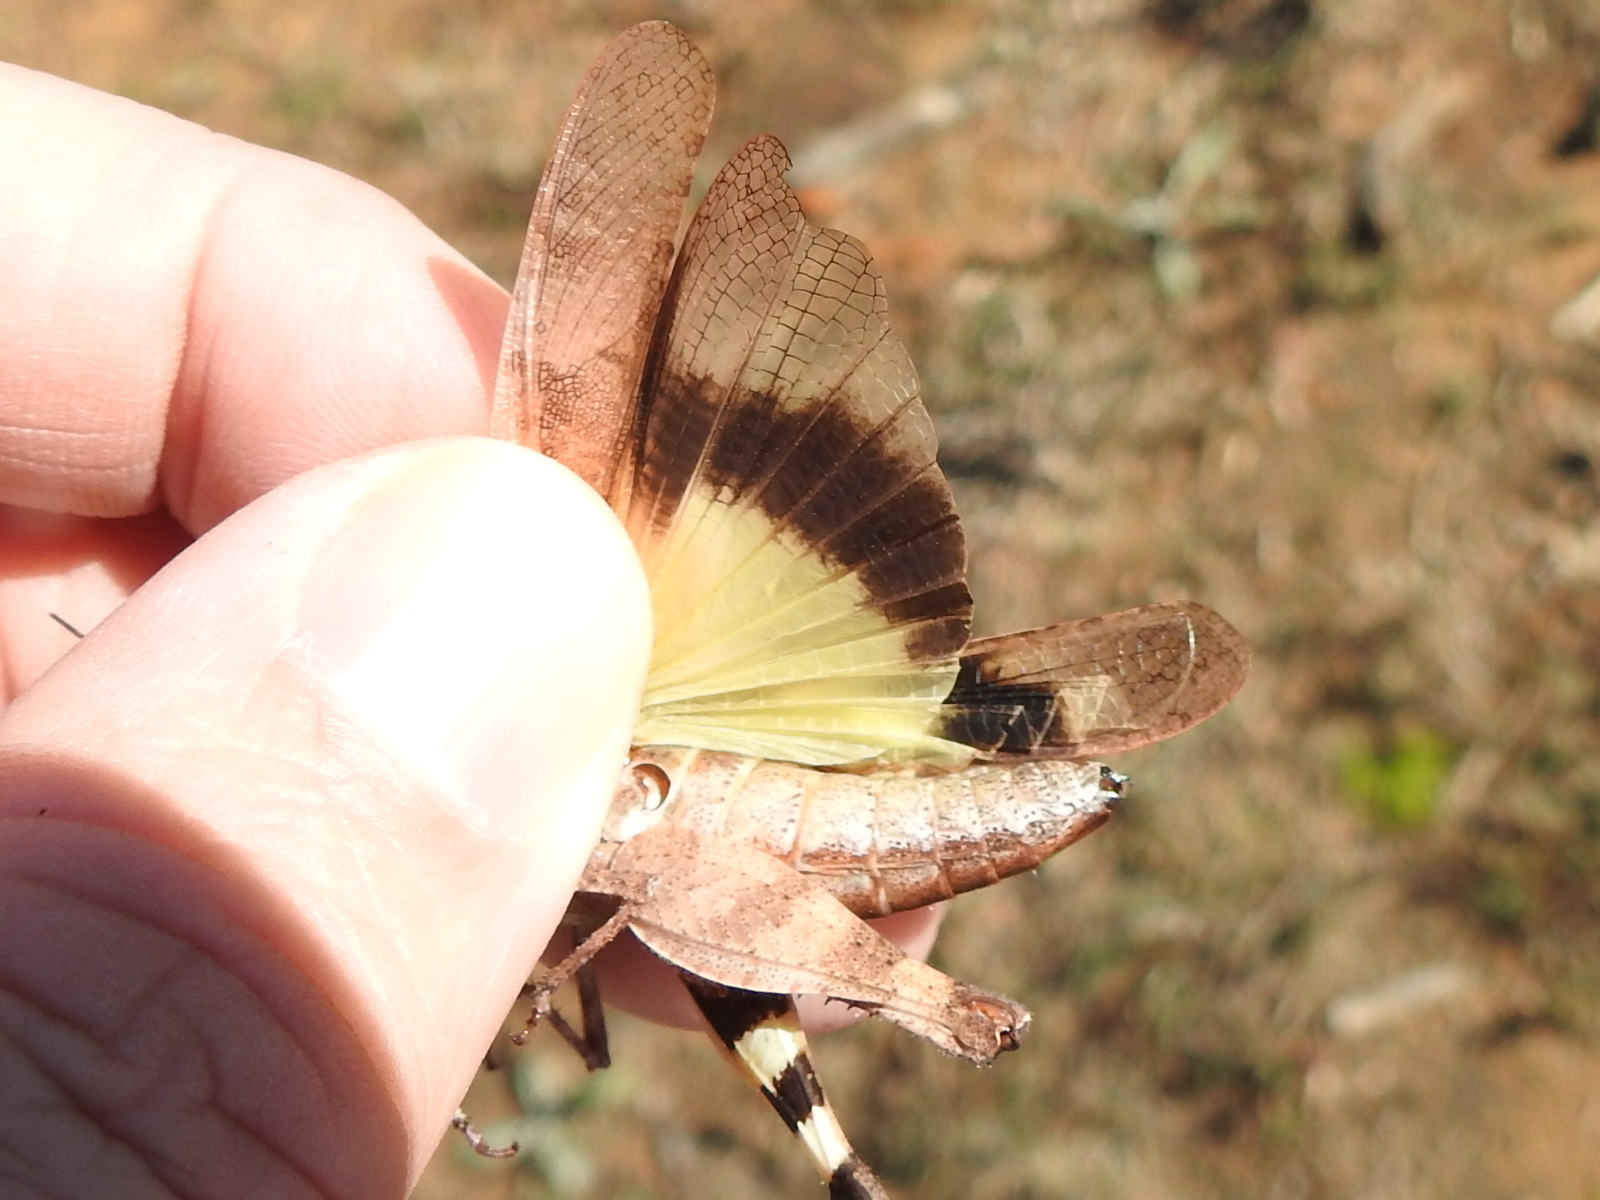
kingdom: Animalia
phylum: Arthropoda
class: Insecta
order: Orthoptera
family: Acrididae
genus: Spharagemon
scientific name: Spharagemon bolli
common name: Boll's grasshopper
